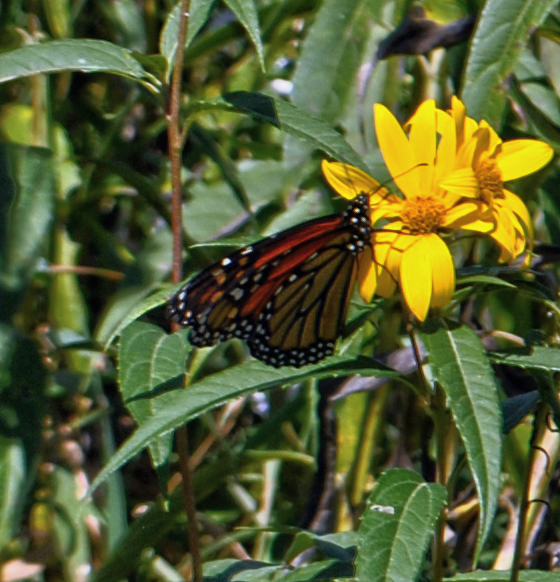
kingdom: Animalia
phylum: Arthropoda
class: Insecta
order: Lepidoptera
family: Nymphalidae
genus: Danaus
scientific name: Danaus plexippus
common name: Monarch
